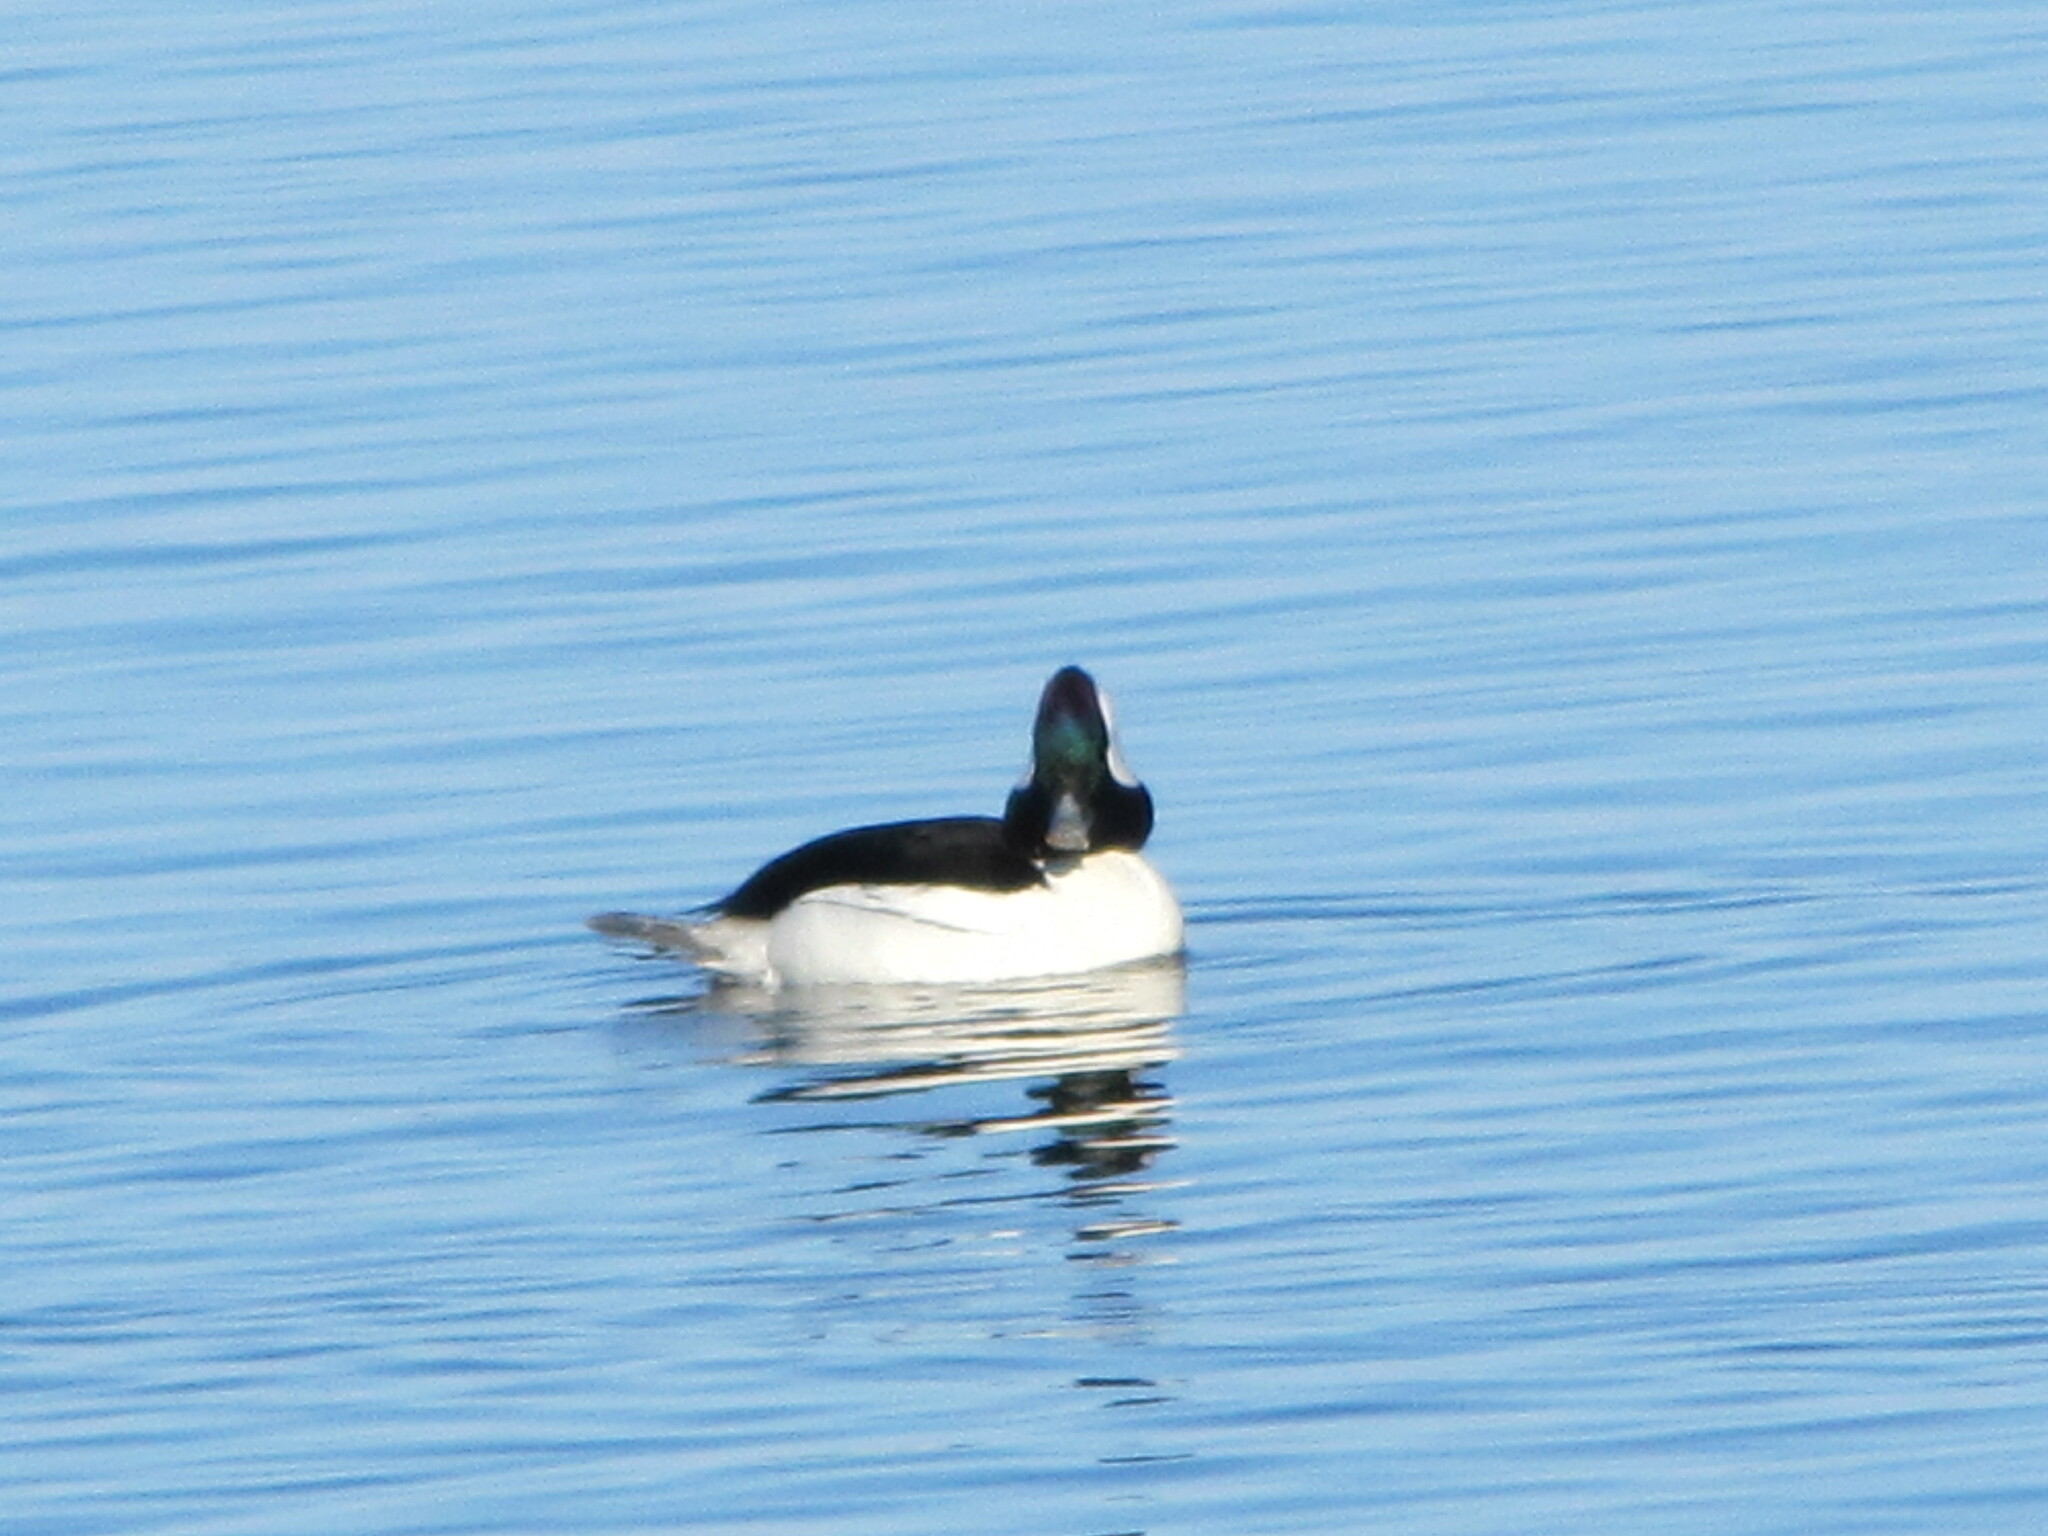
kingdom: Animalia
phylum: Chordata
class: Aves
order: Anseriformes
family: Anatidae
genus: Bucephala
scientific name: Bucephala albeola
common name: Bufflehead
